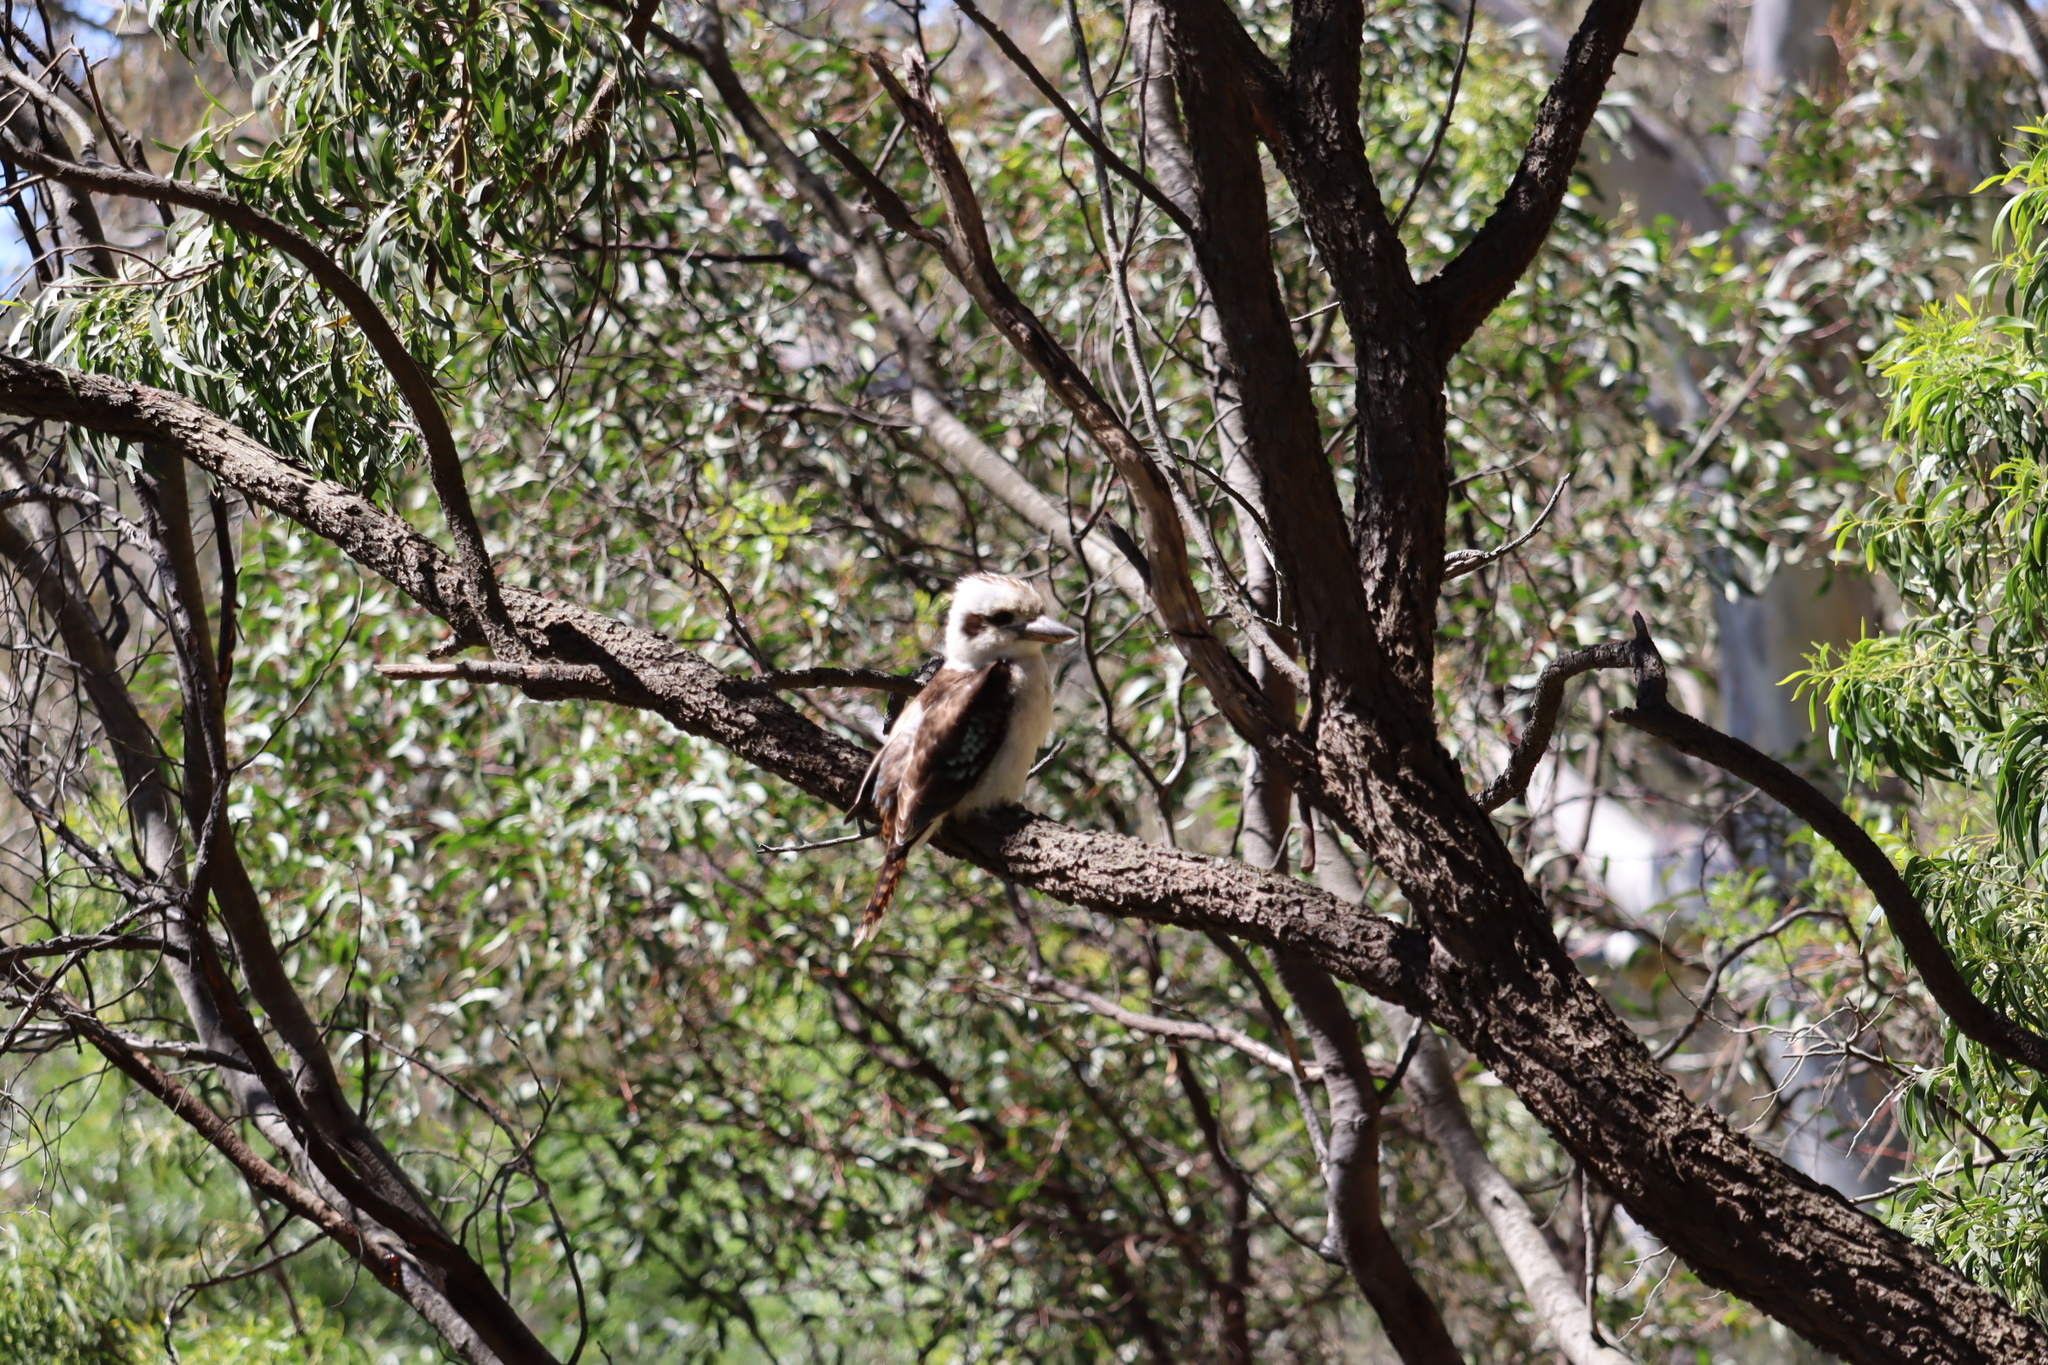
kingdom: Animalia
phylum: Chordata
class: Aves
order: Coraciiformes
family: Alcedinidae
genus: Dacelo
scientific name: Dacelo novaeguineae
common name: Laughing kookaburra
